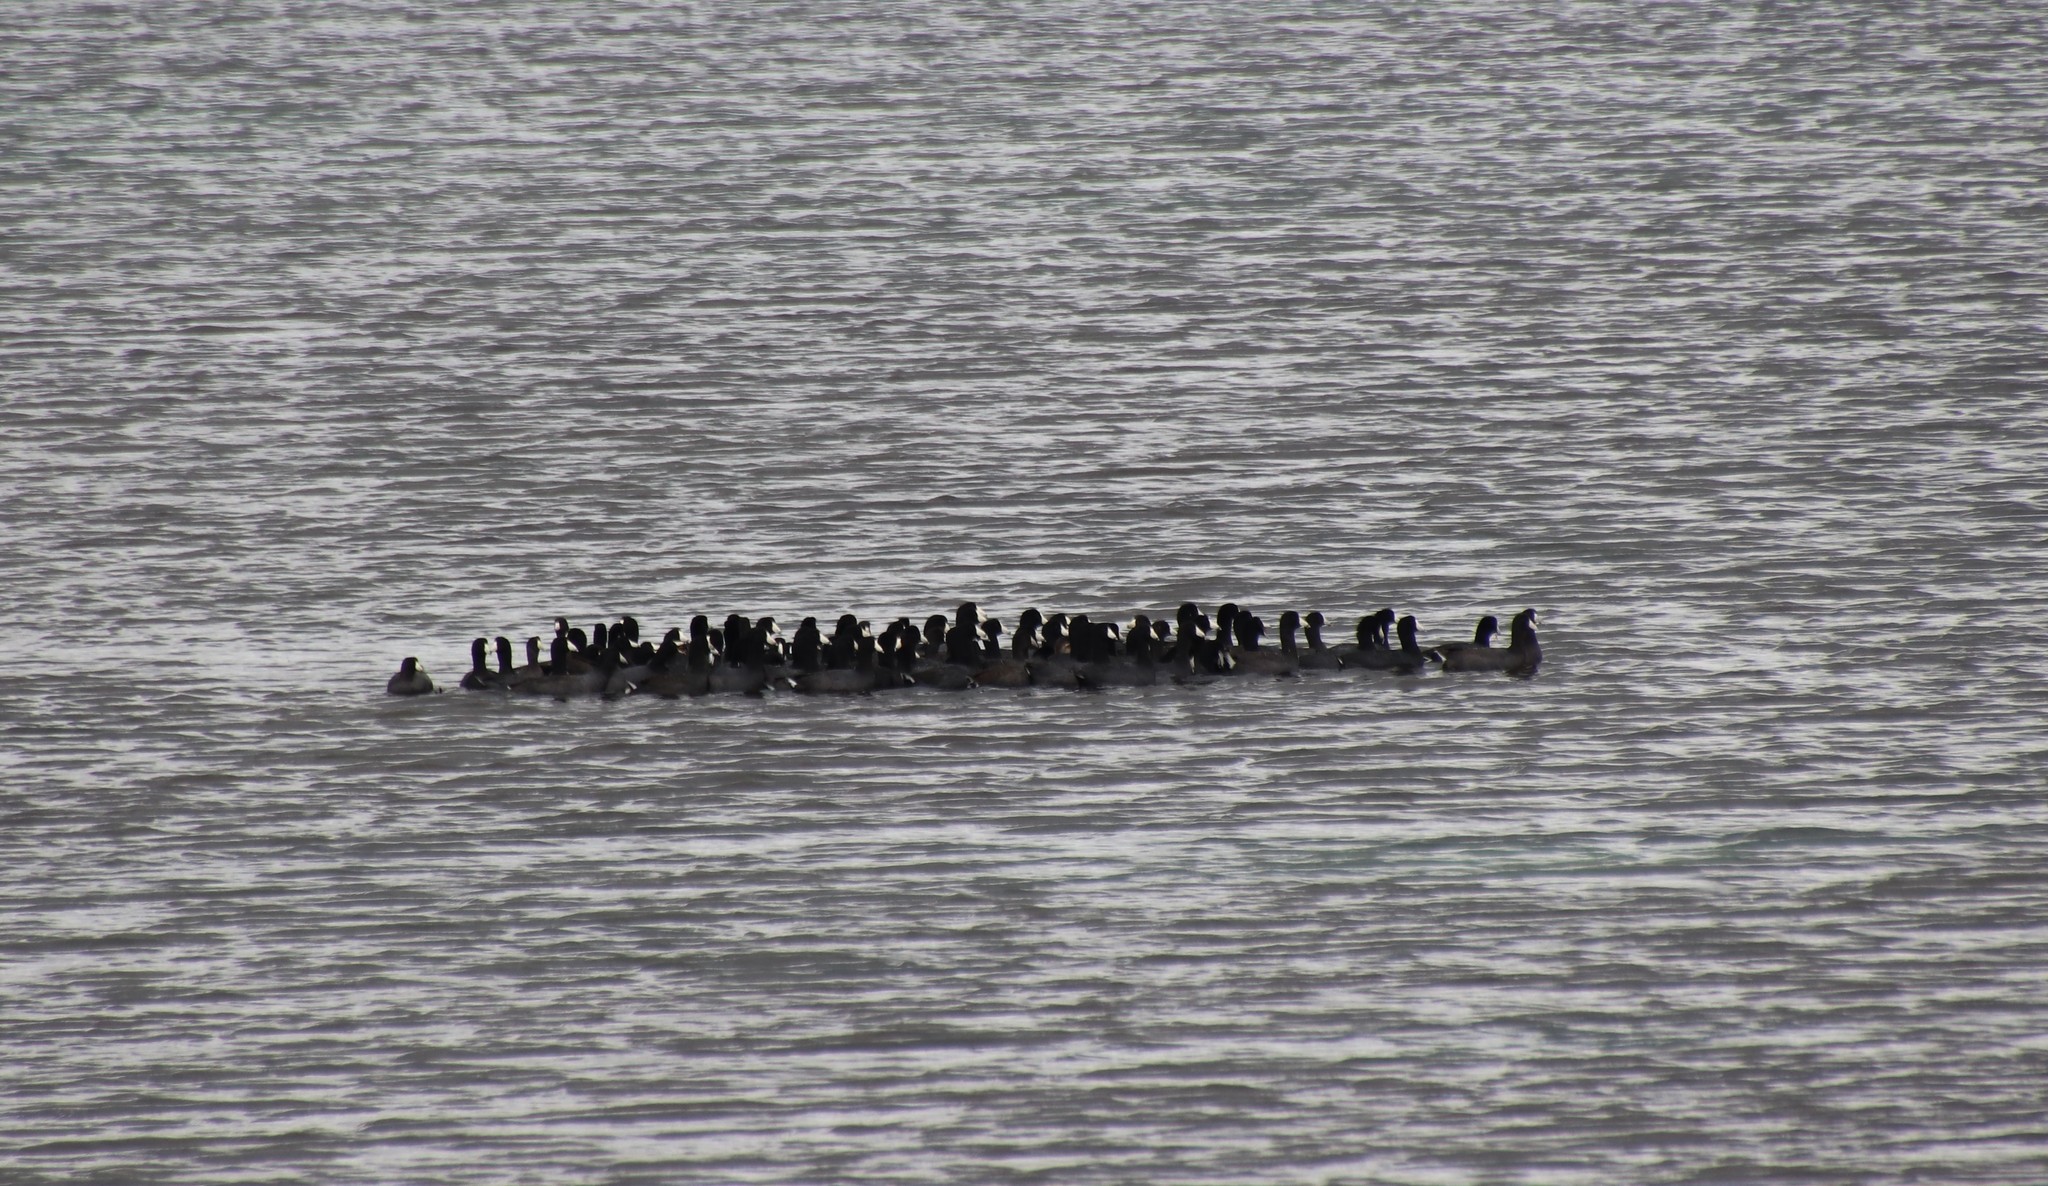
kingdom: Animalia
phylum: Chordata
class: Aves
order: Gruiformes
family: Rallidae
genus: Fulica
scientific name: Fulica americana
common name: American coot
